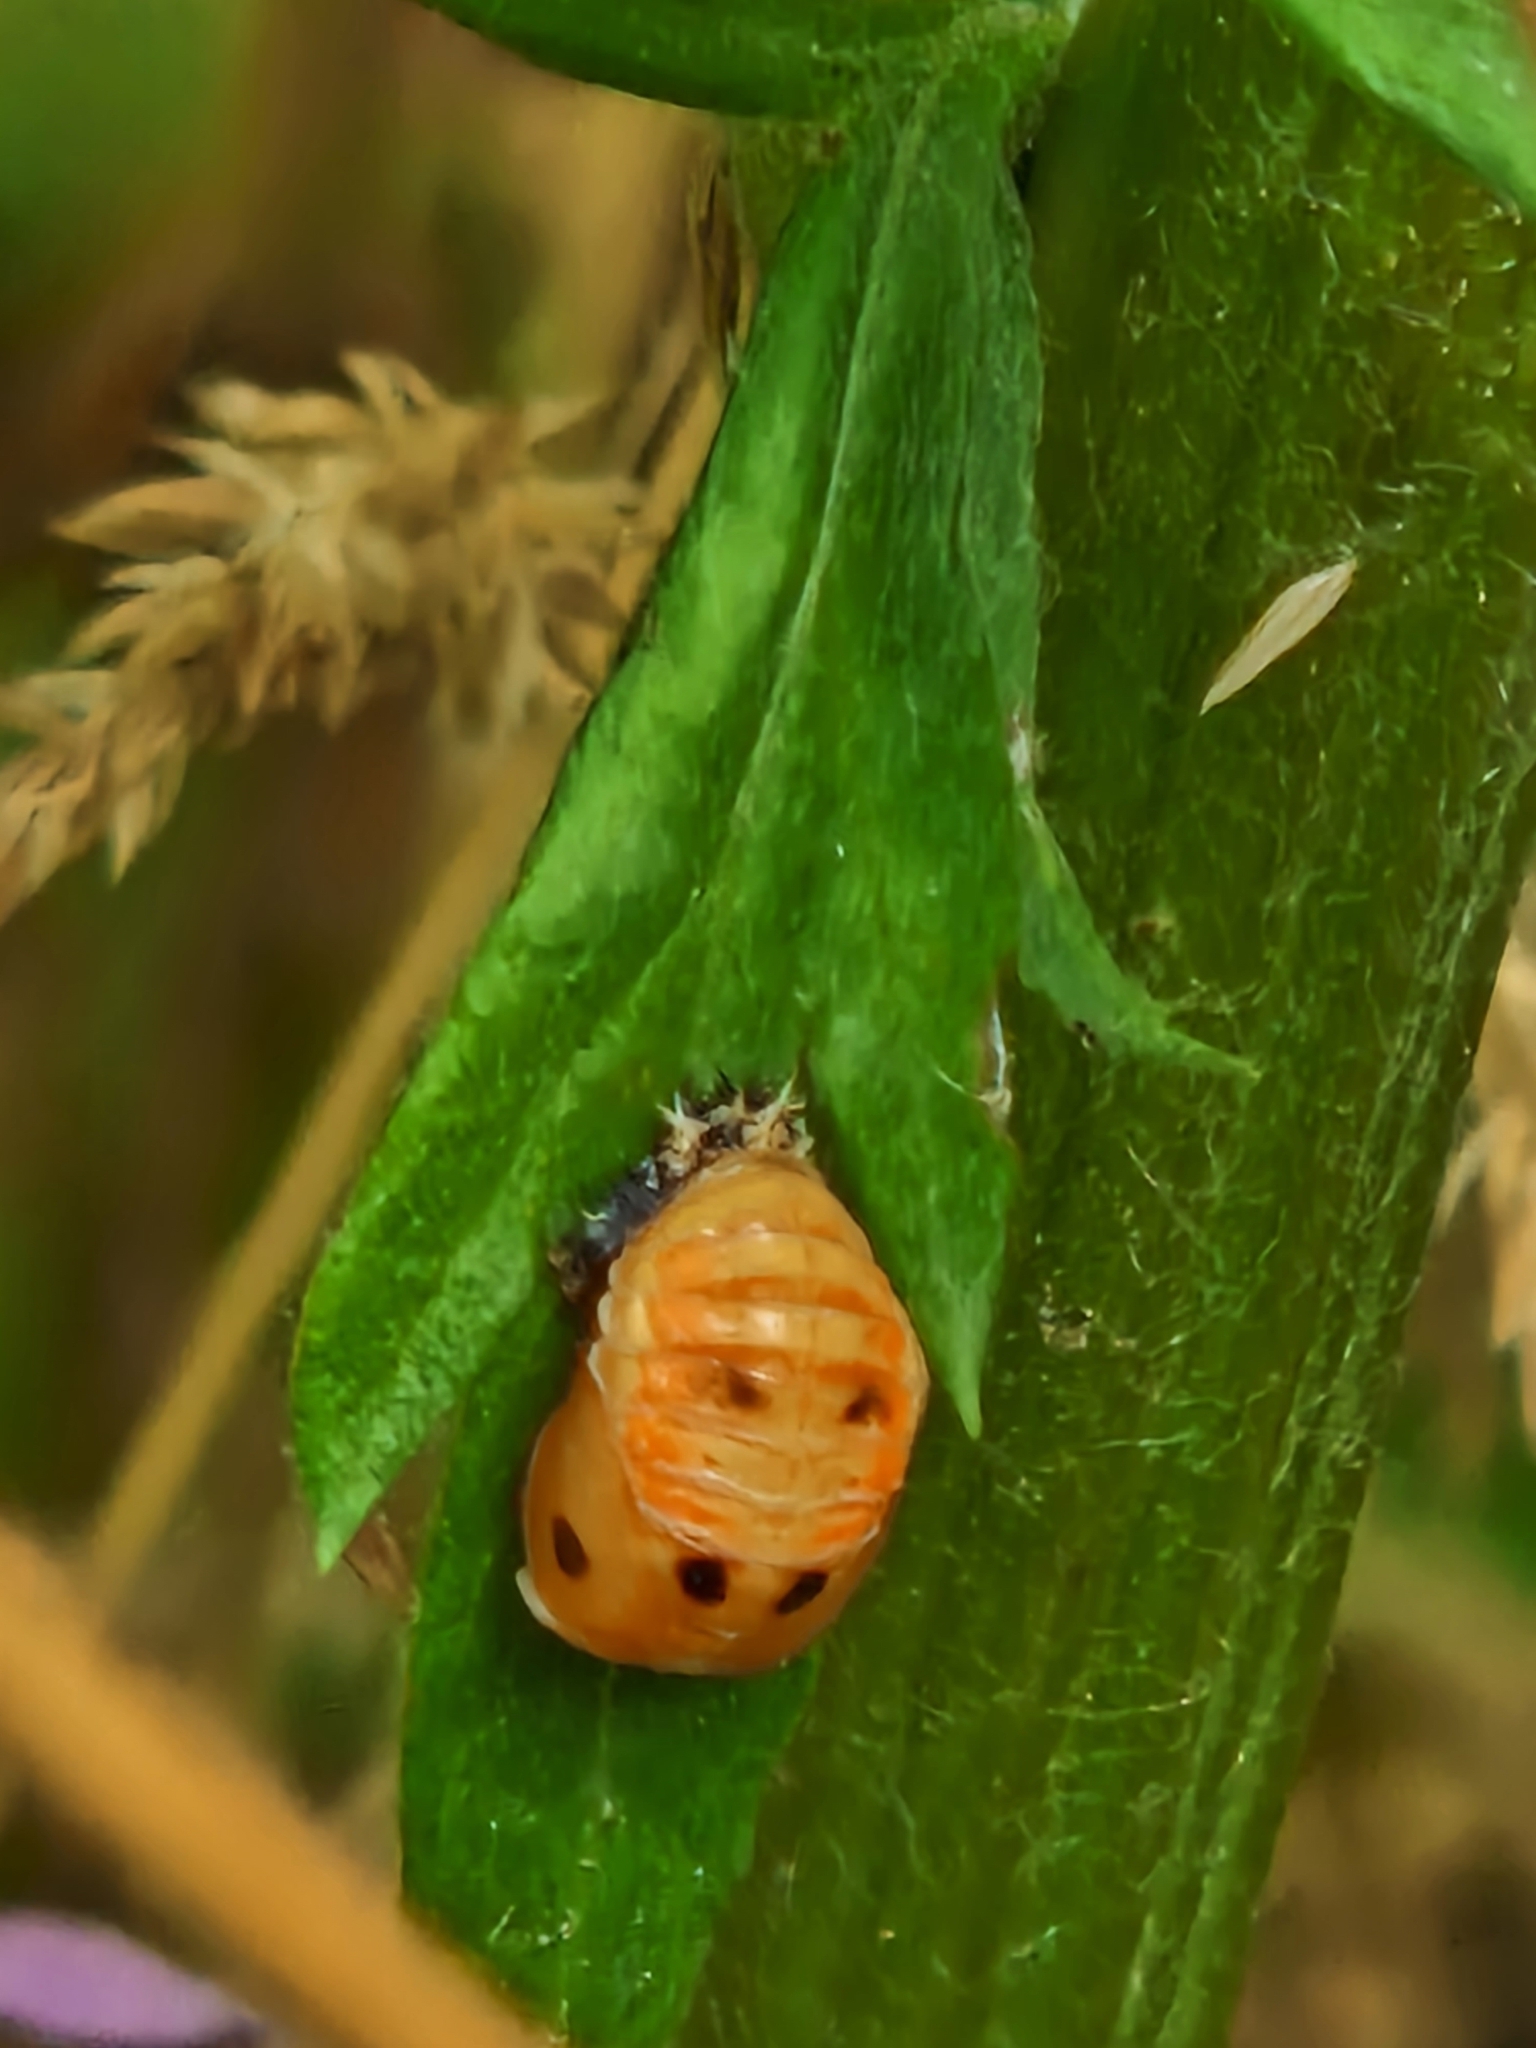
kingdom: Animalia
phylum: Arthropoda
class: Insecta
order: Coleoptera
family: Coccinellidae
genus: Harmonia
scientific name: Harmonia axyridis
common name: Harlequin ladybird
